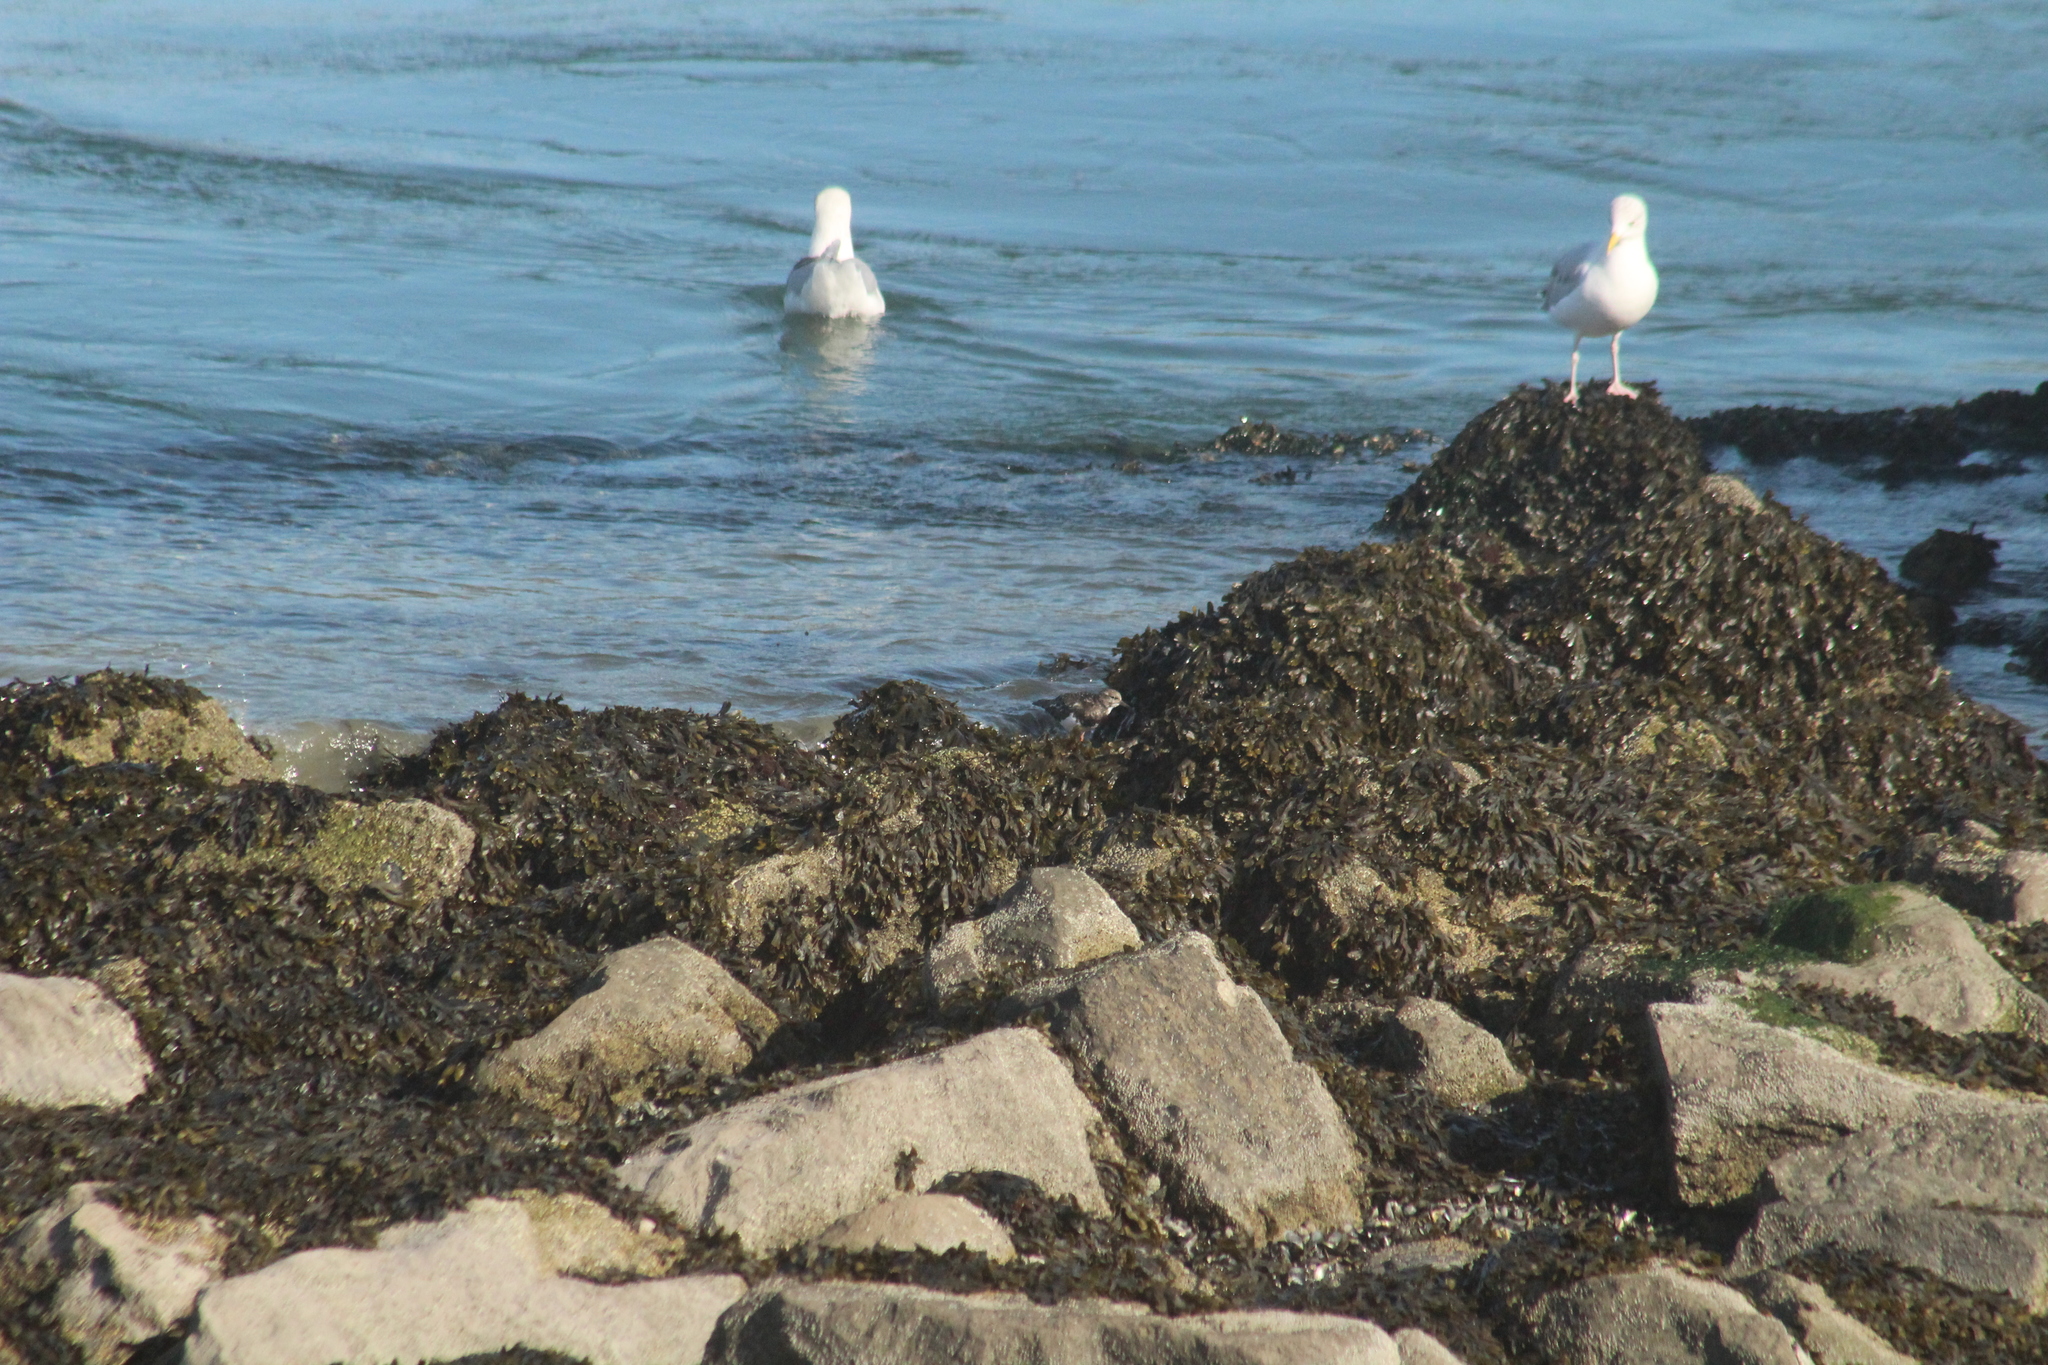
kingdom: Animalia
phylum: Chordata
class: Aves
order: Charadriiformes
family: Scolopacidae
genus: Arenaria
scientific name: Arenaria interpres
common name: Ruddy turnstone
